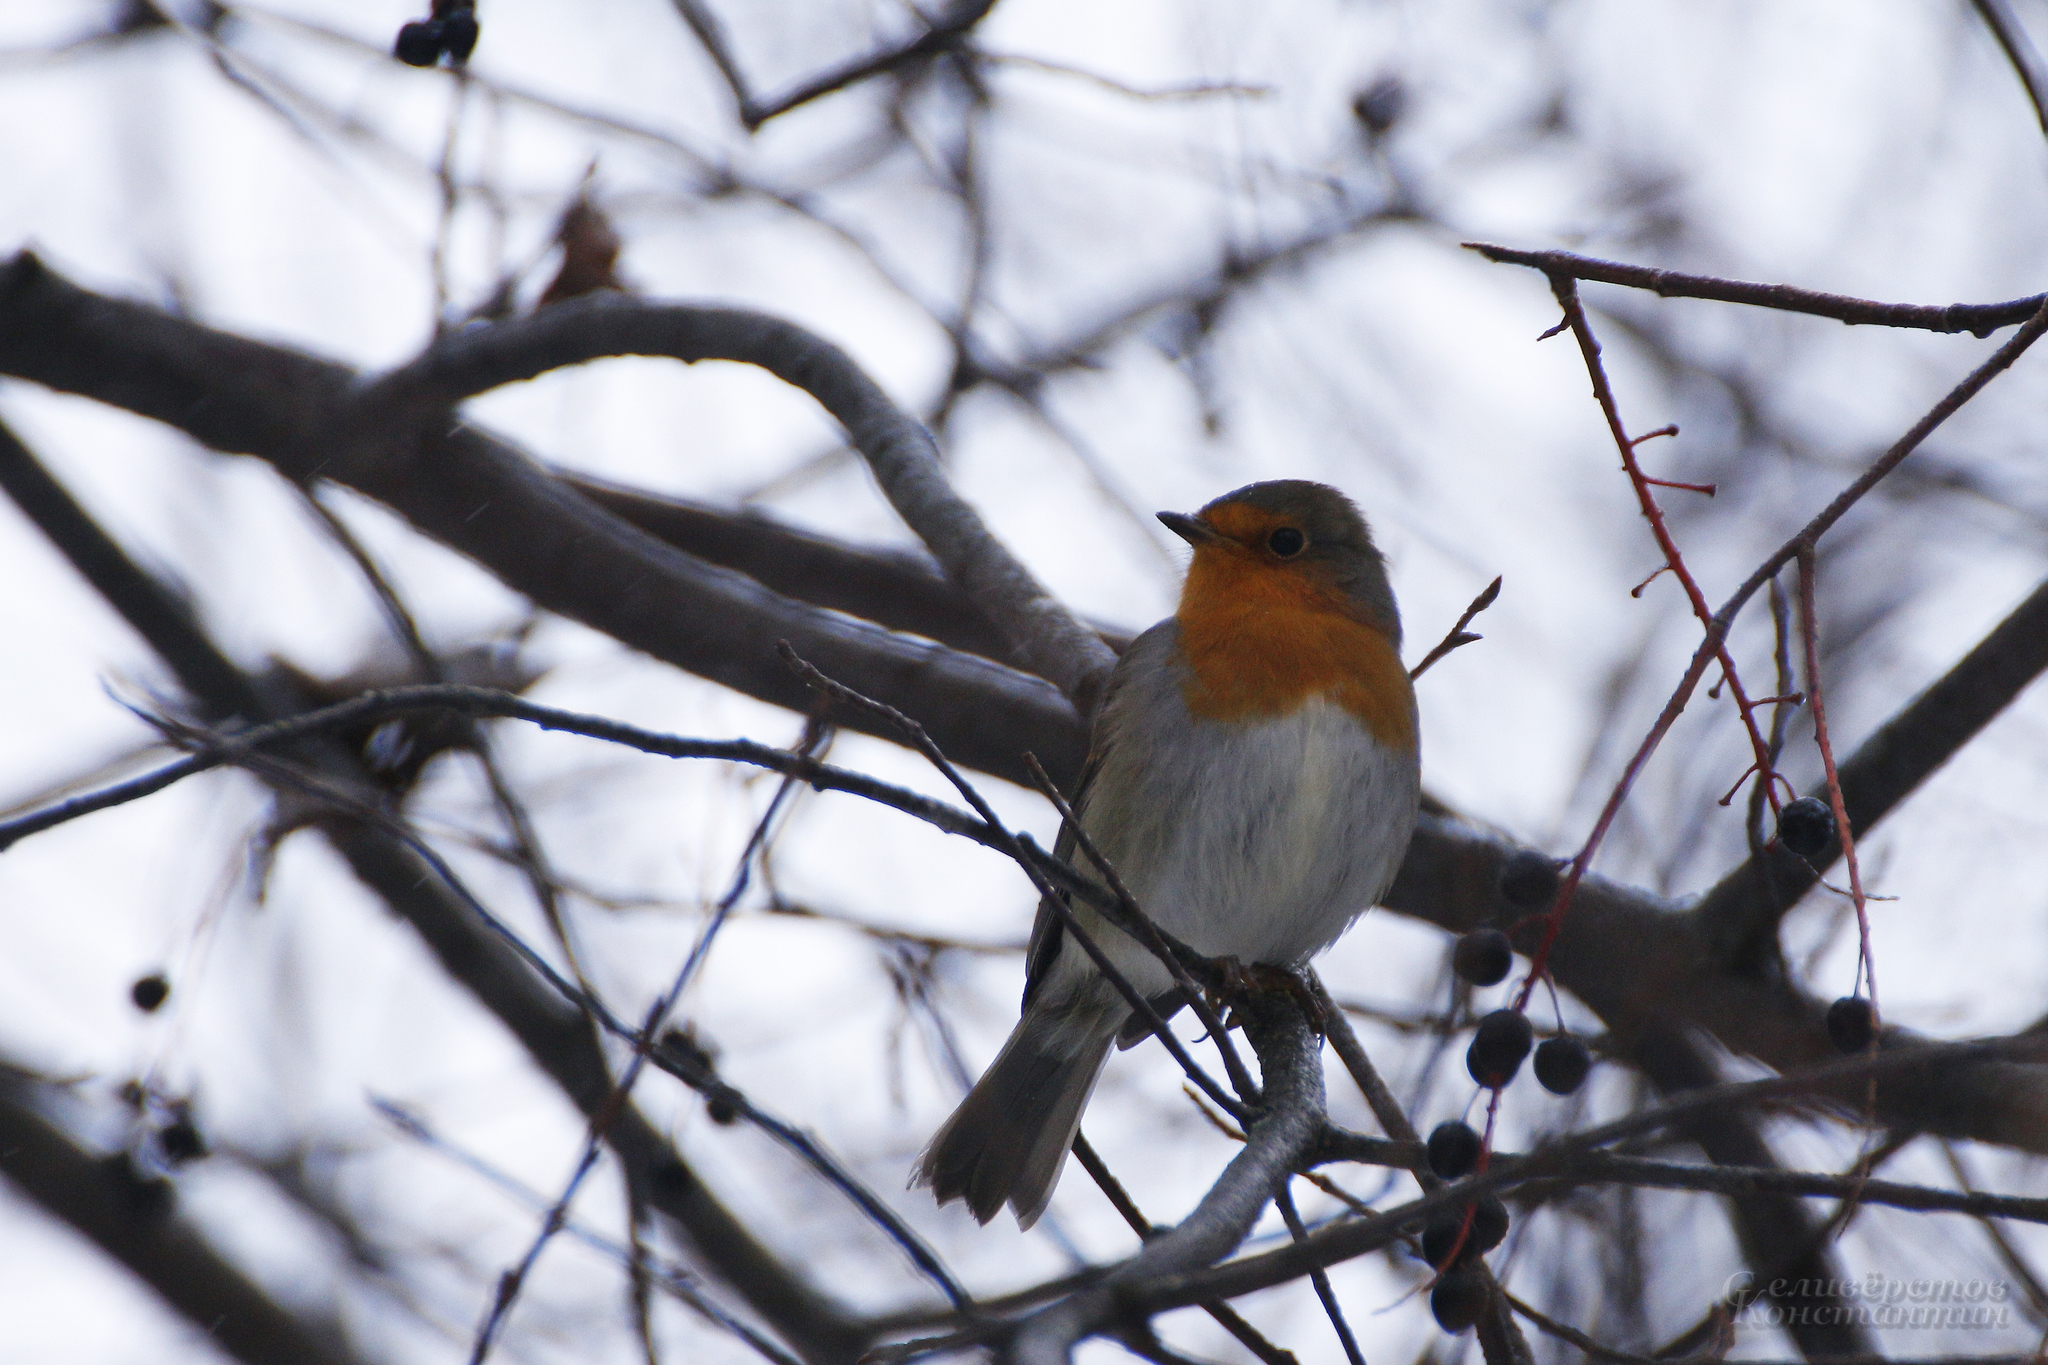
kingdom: Animalia
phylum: Chordata
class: Aves
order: Passeriformes
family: Muscicapidae
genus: Erithacus
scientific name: Erithacus rubecula
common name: European robin
